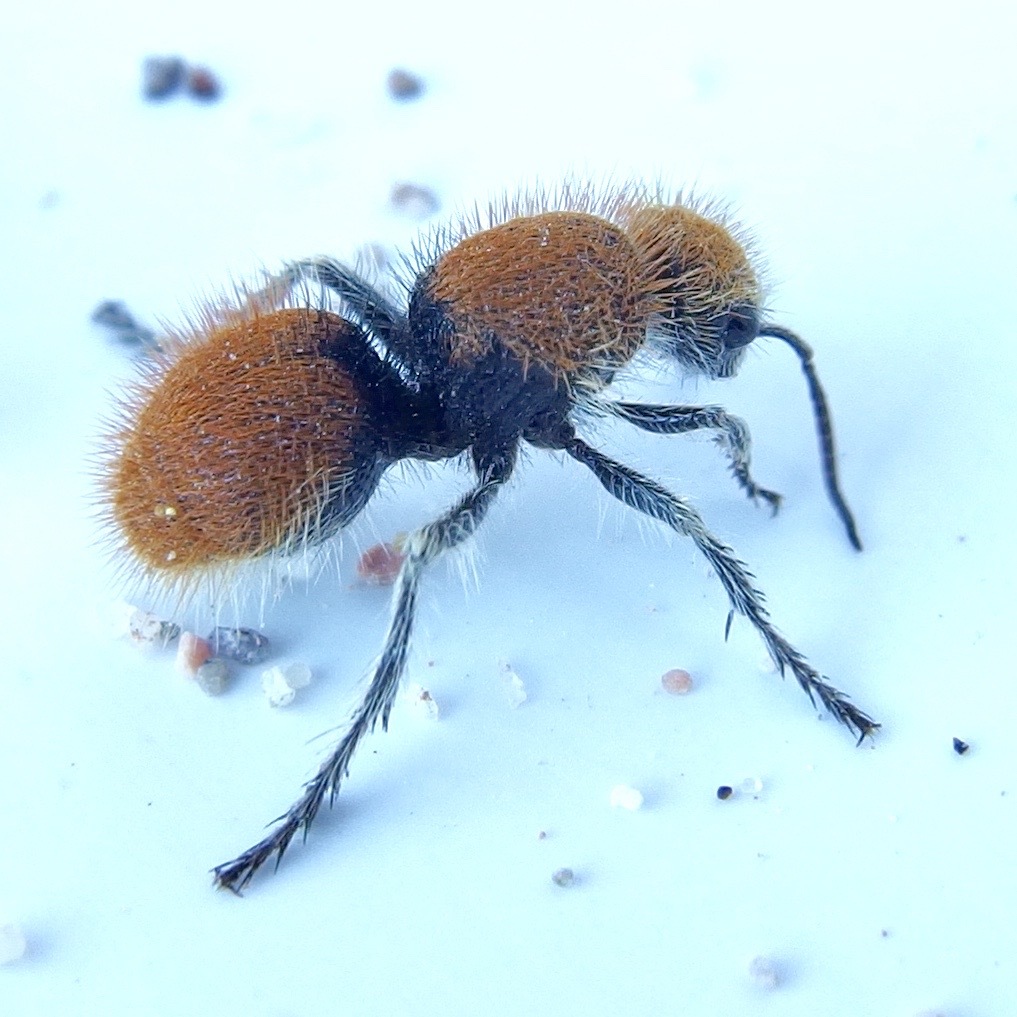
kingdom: Animalia
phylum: Arthropoda
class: Insecta
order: Hymenoptera
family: Mutillidae
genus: Dasymutilla
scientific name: Dasymutilla
